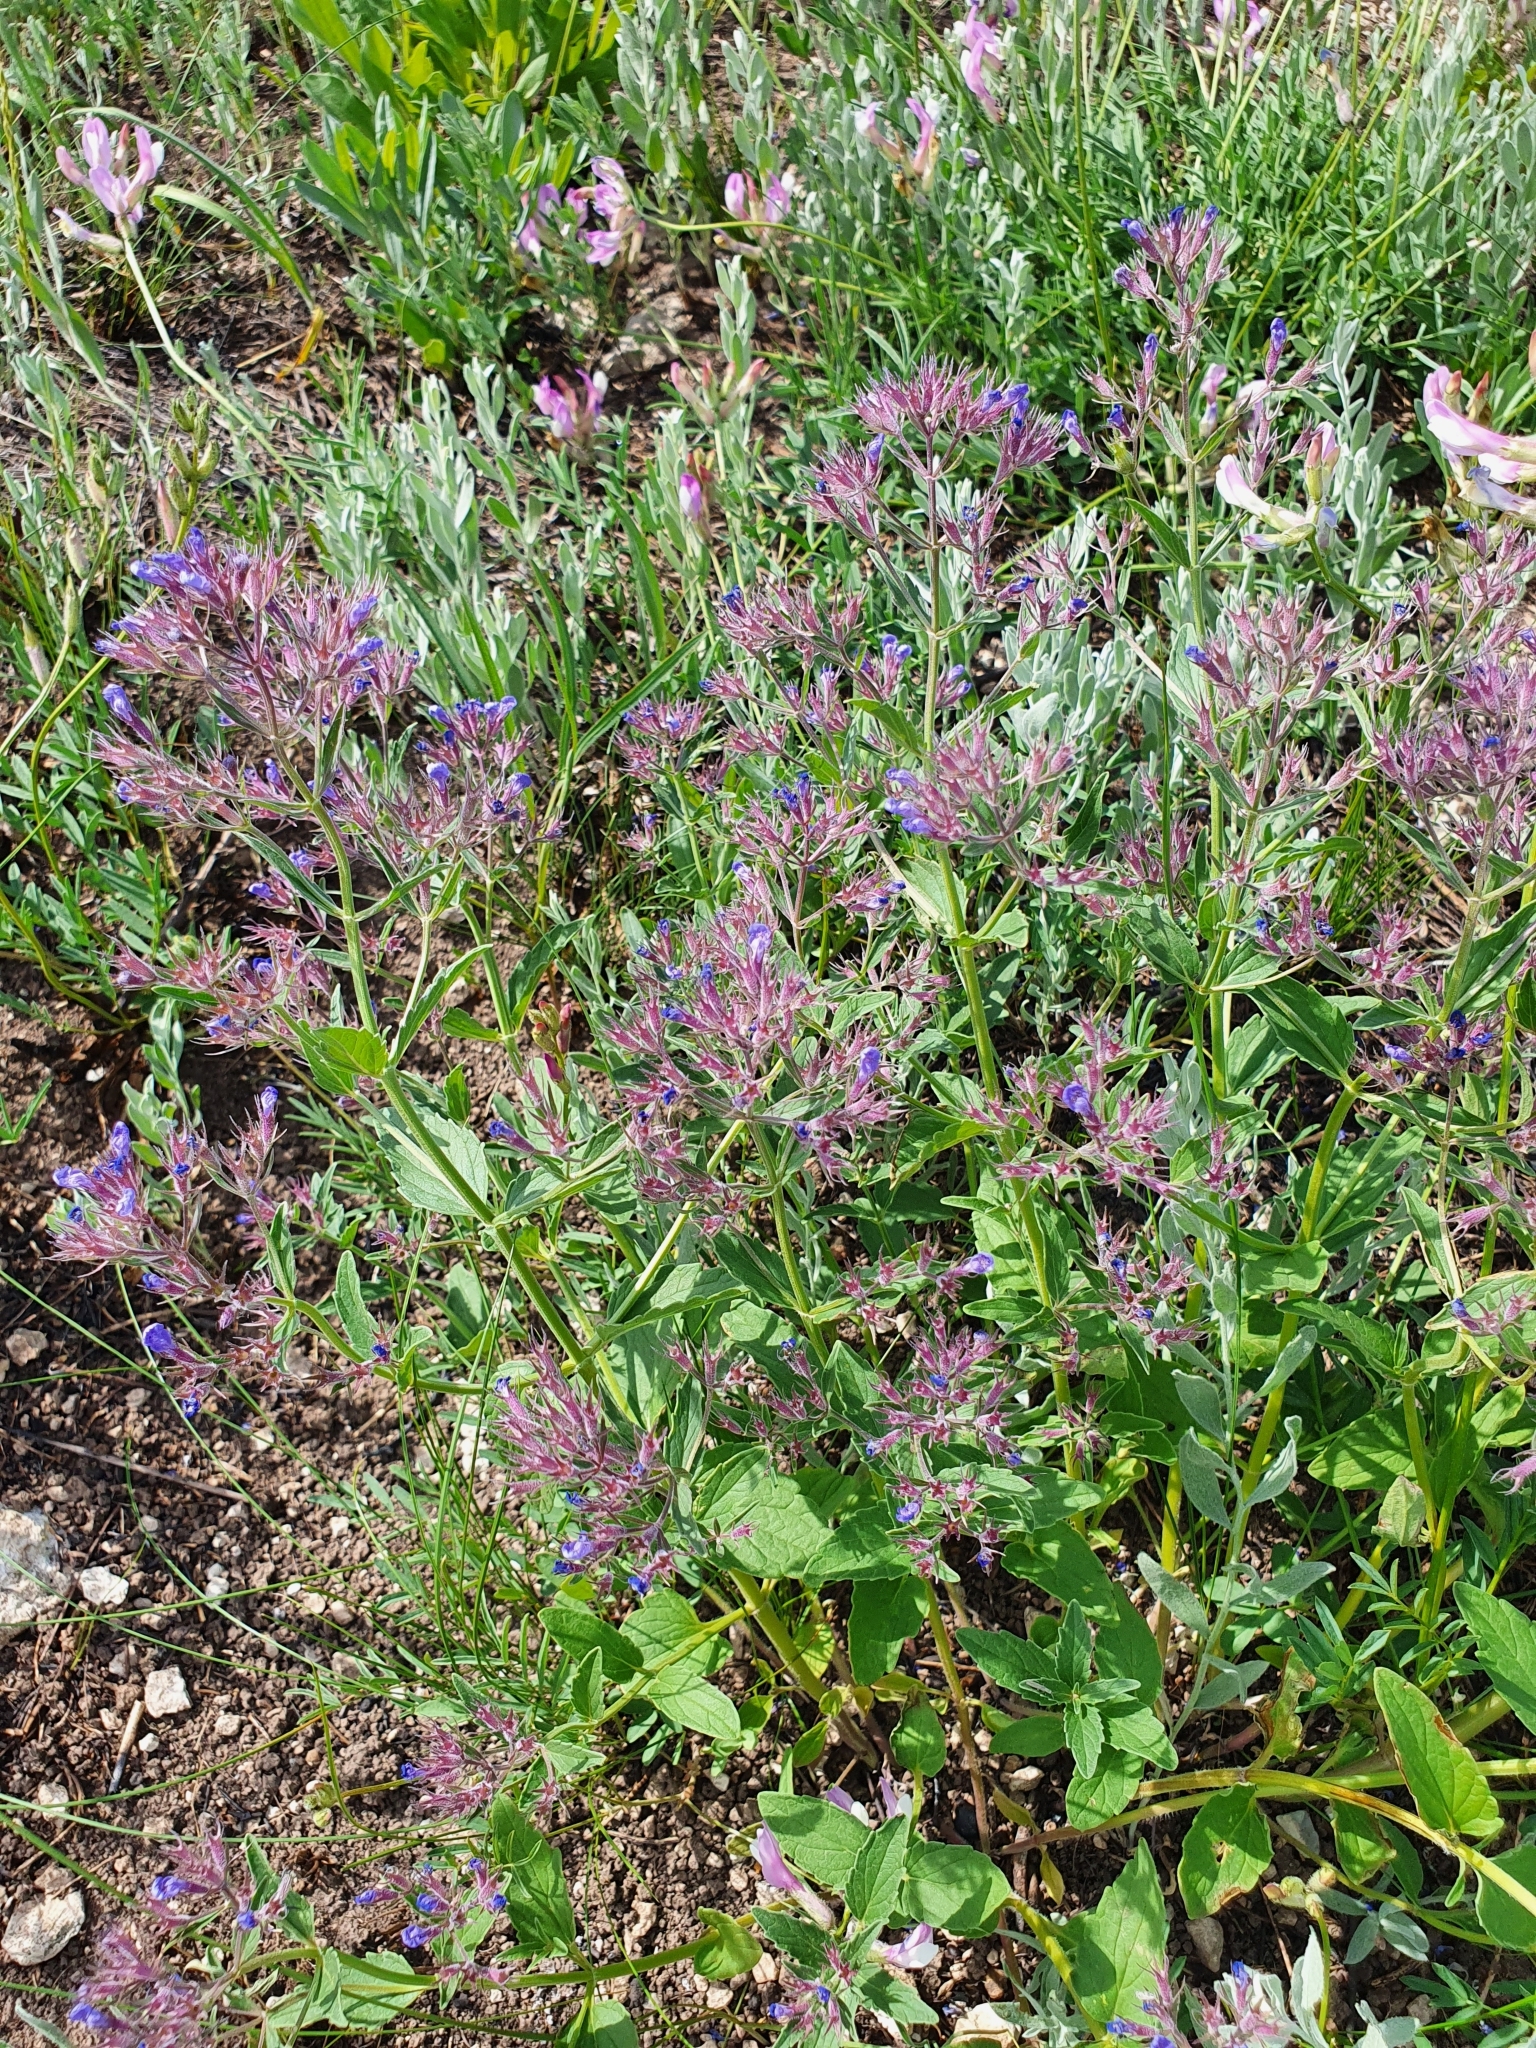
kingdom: Plantae
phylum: Tracheophyta
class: Magnoliopsida
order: Lamiales
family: Lamiaceae
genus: Nepeta
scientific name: Nepeta ucranica
